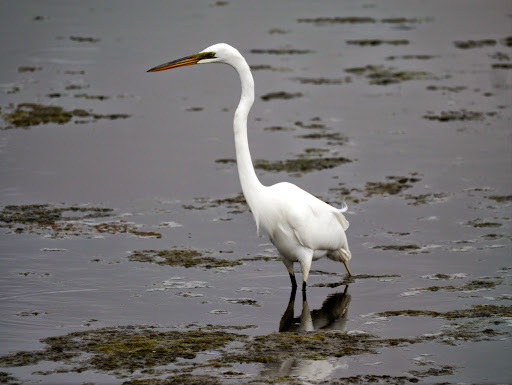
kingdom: Animalia
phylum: Chordata
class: Aves
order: Pelecaniformes
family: Ardeidae
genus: Ardea
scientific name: Ardea alba
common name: Great egret
